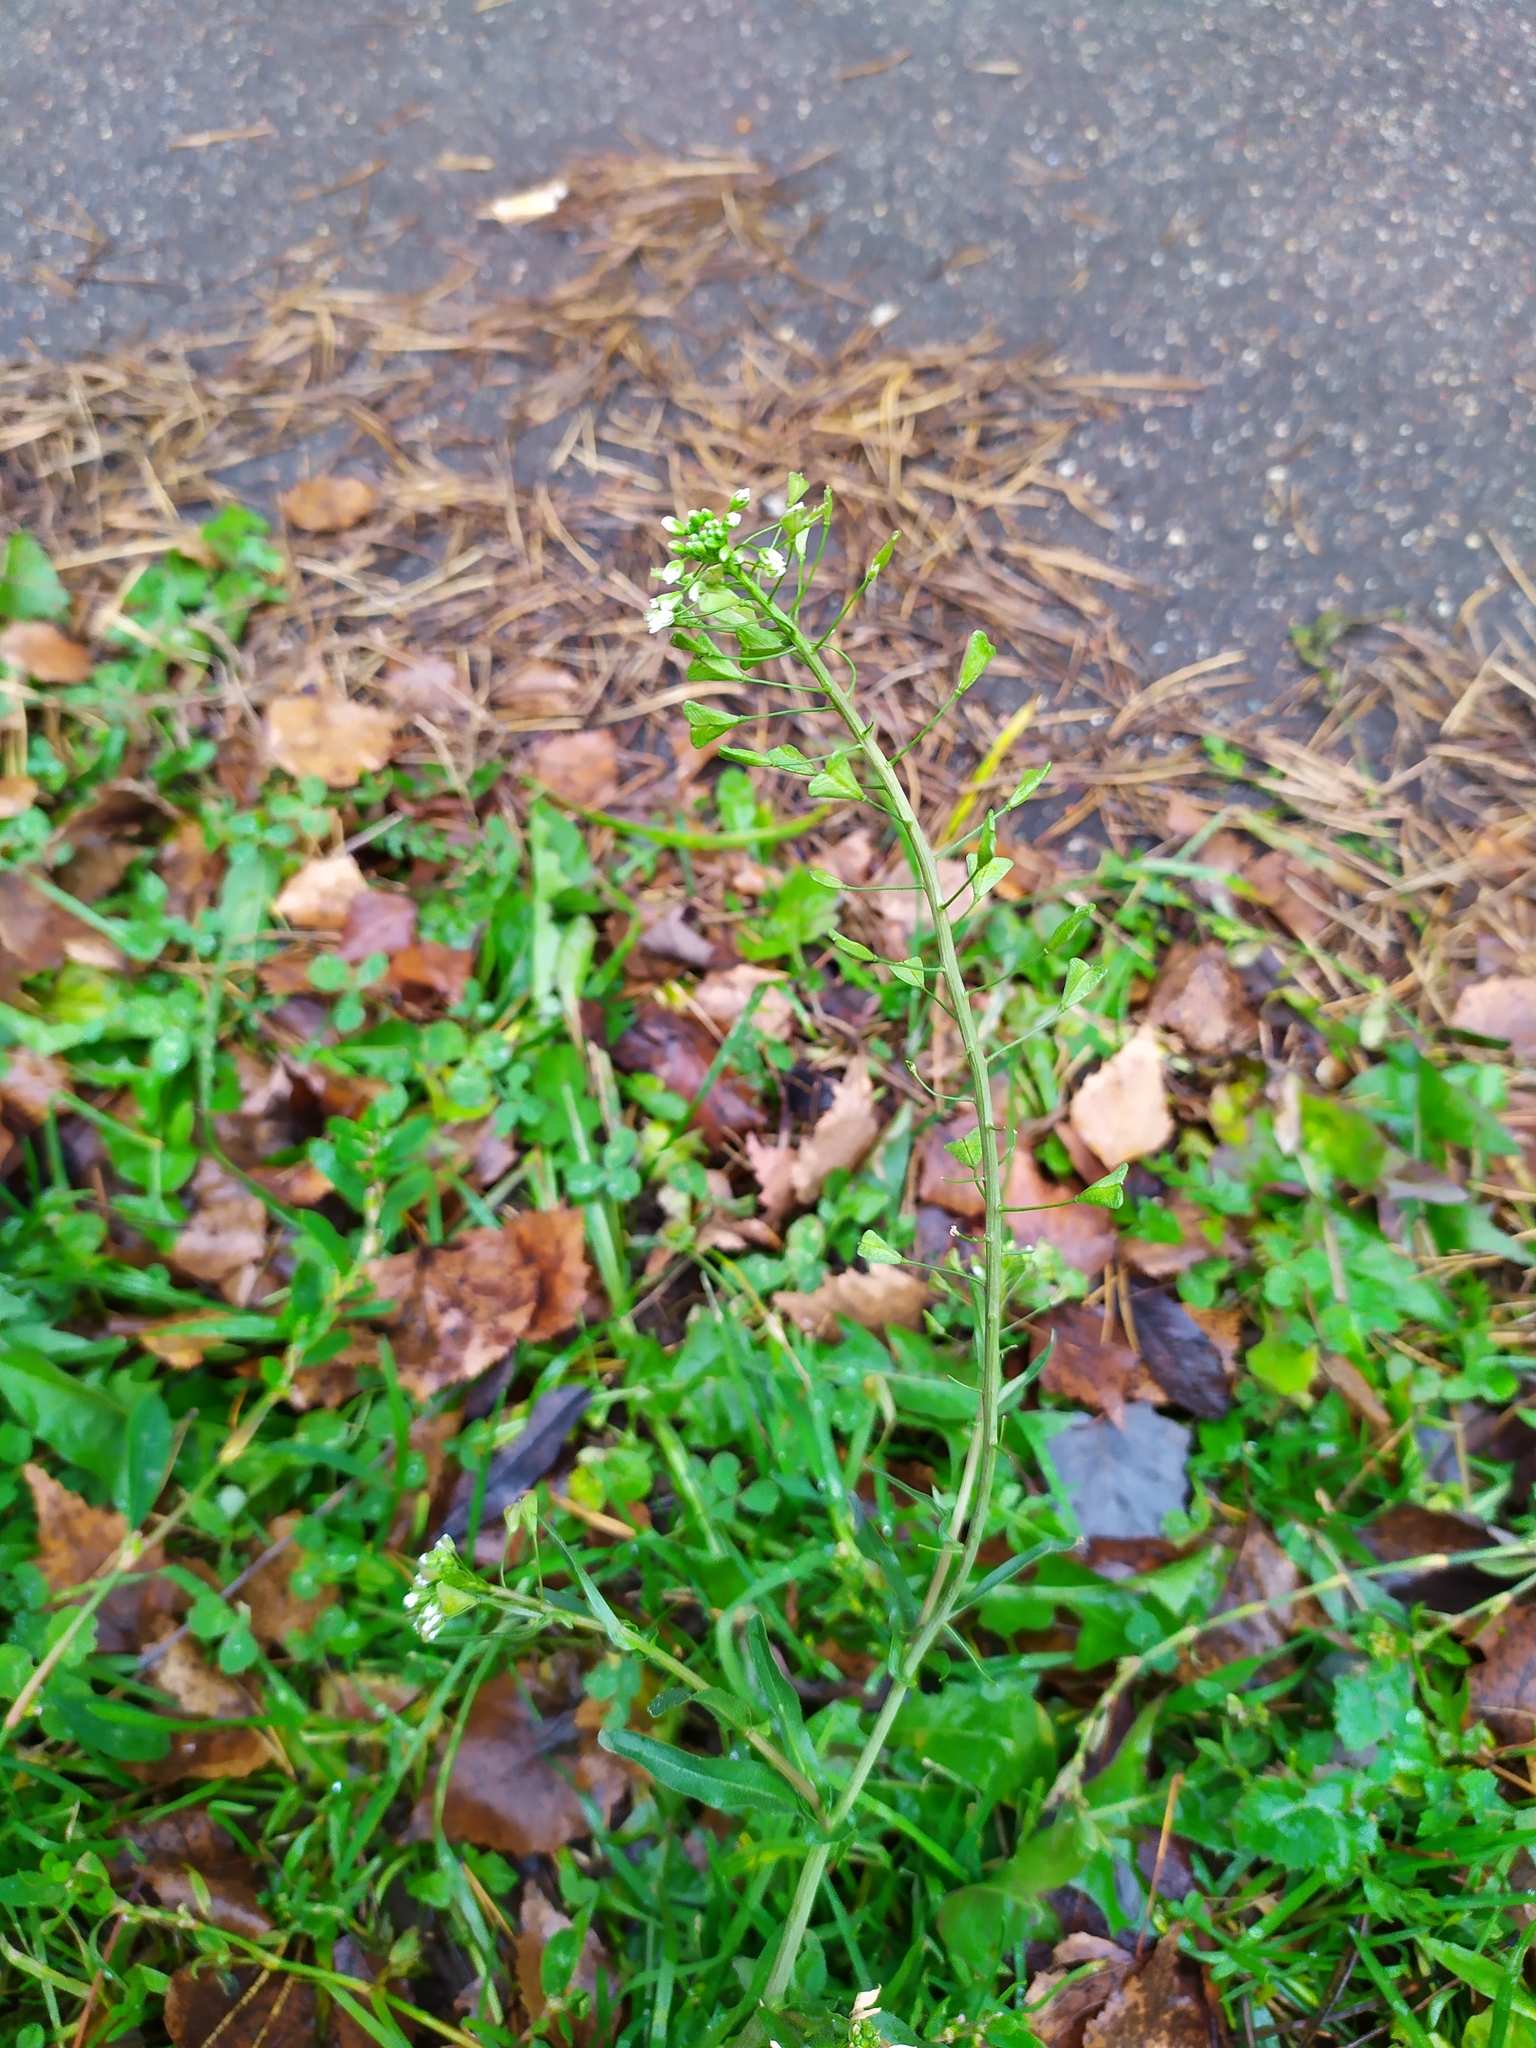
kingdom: Plantae
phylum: Tracheophyta
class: Magnoliopsida
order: Brassicales
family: Brassicaceae
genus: Capsella
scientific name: Capsella bursa-pastoris
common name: Shepherd's purse
